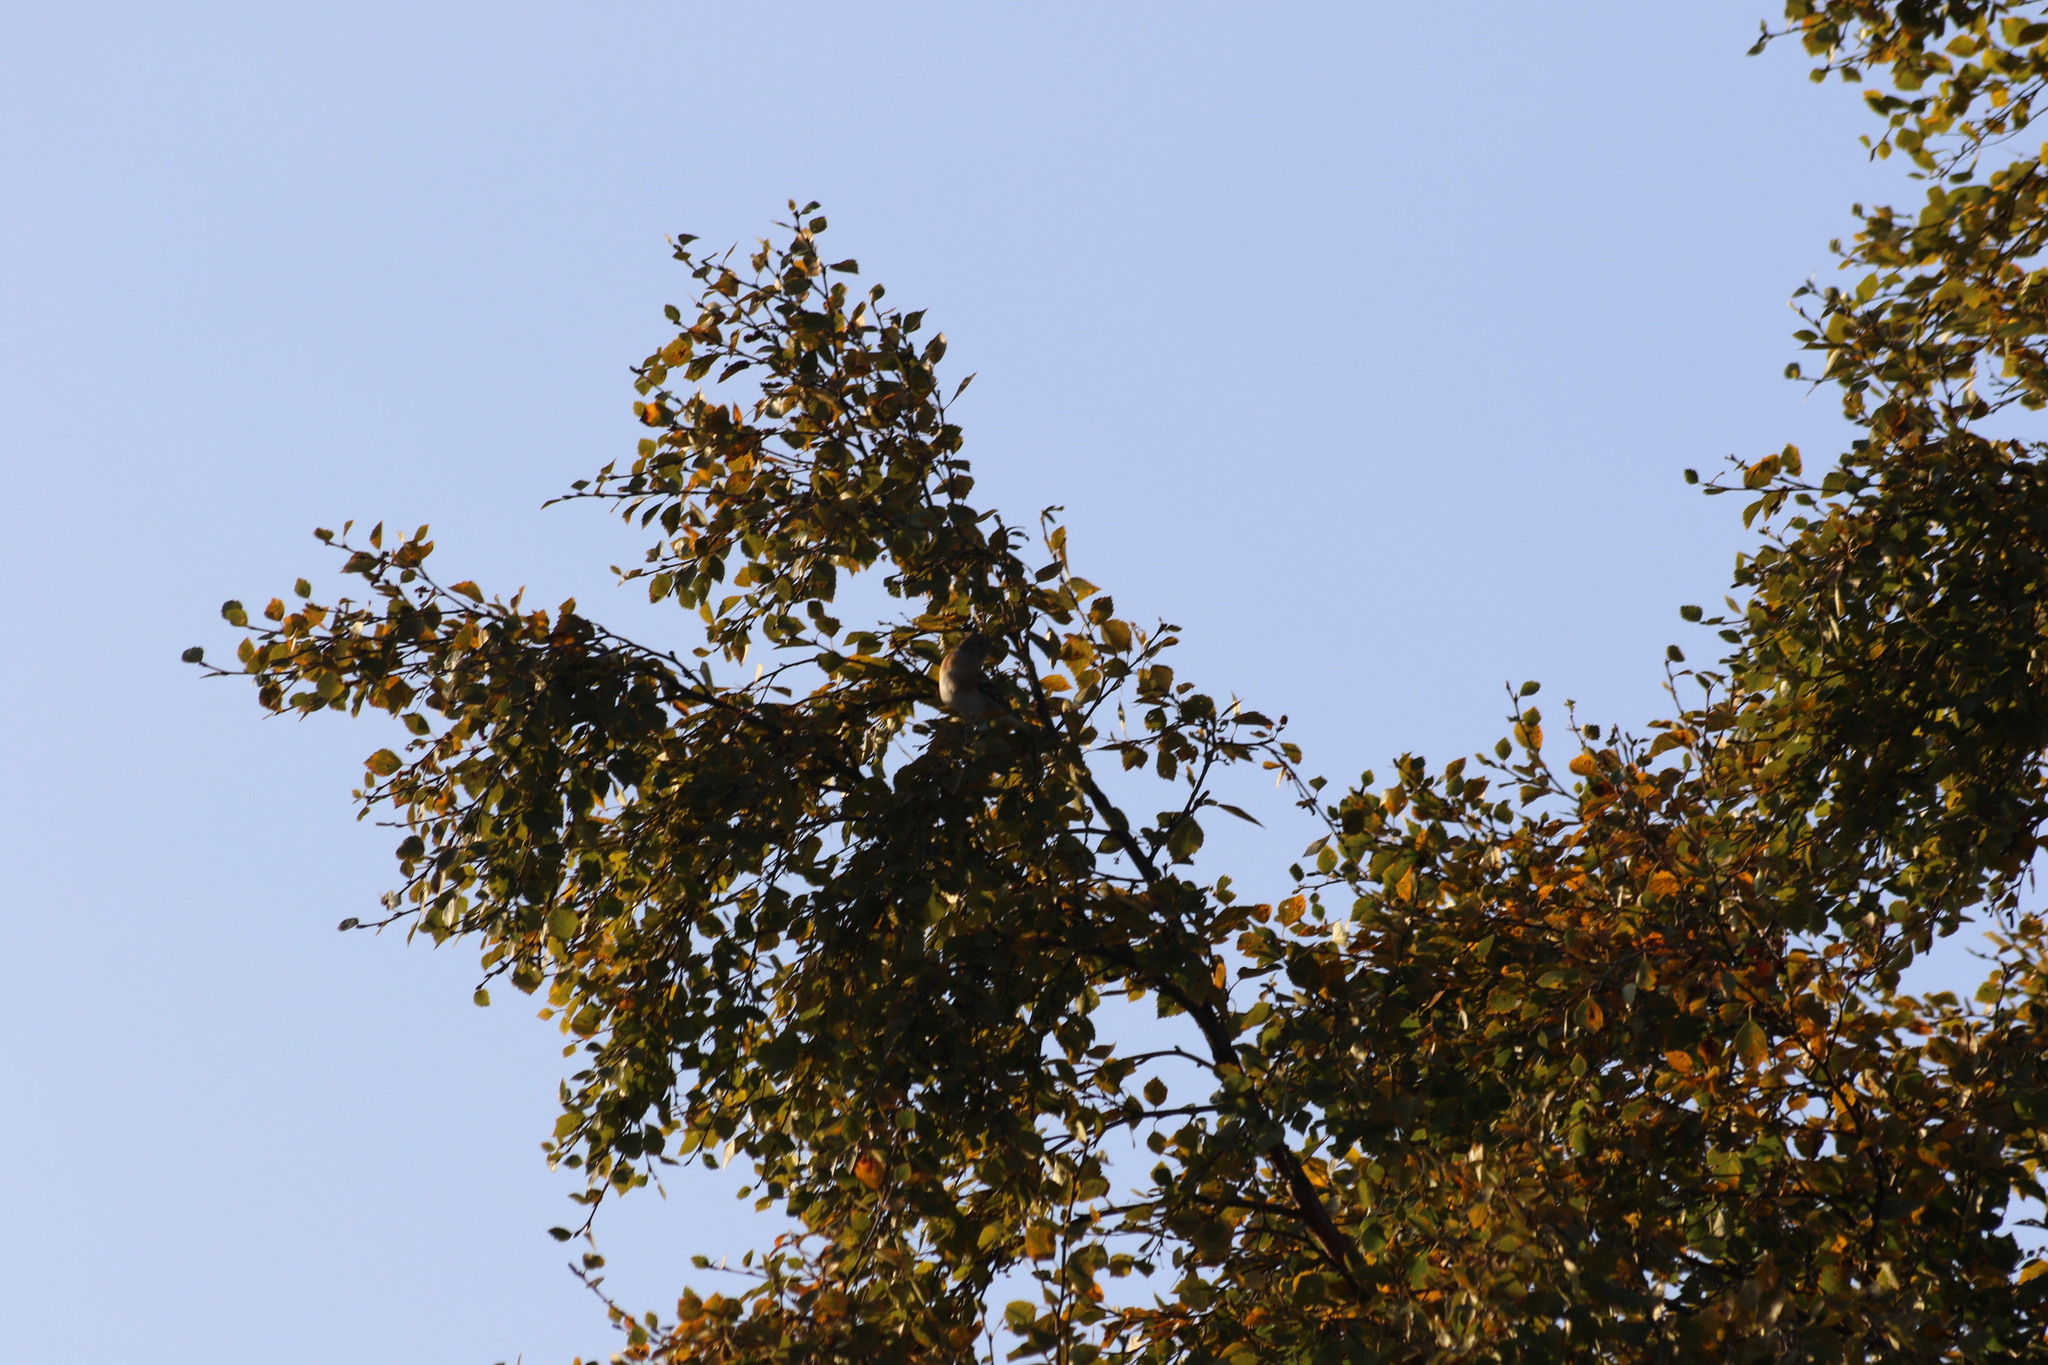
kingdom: Animalia
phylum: Chordata
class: Aves
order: Passeriformes
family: Fringillidae
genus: Fringilla
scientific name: Fringilla montifringilla
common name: Brambling
